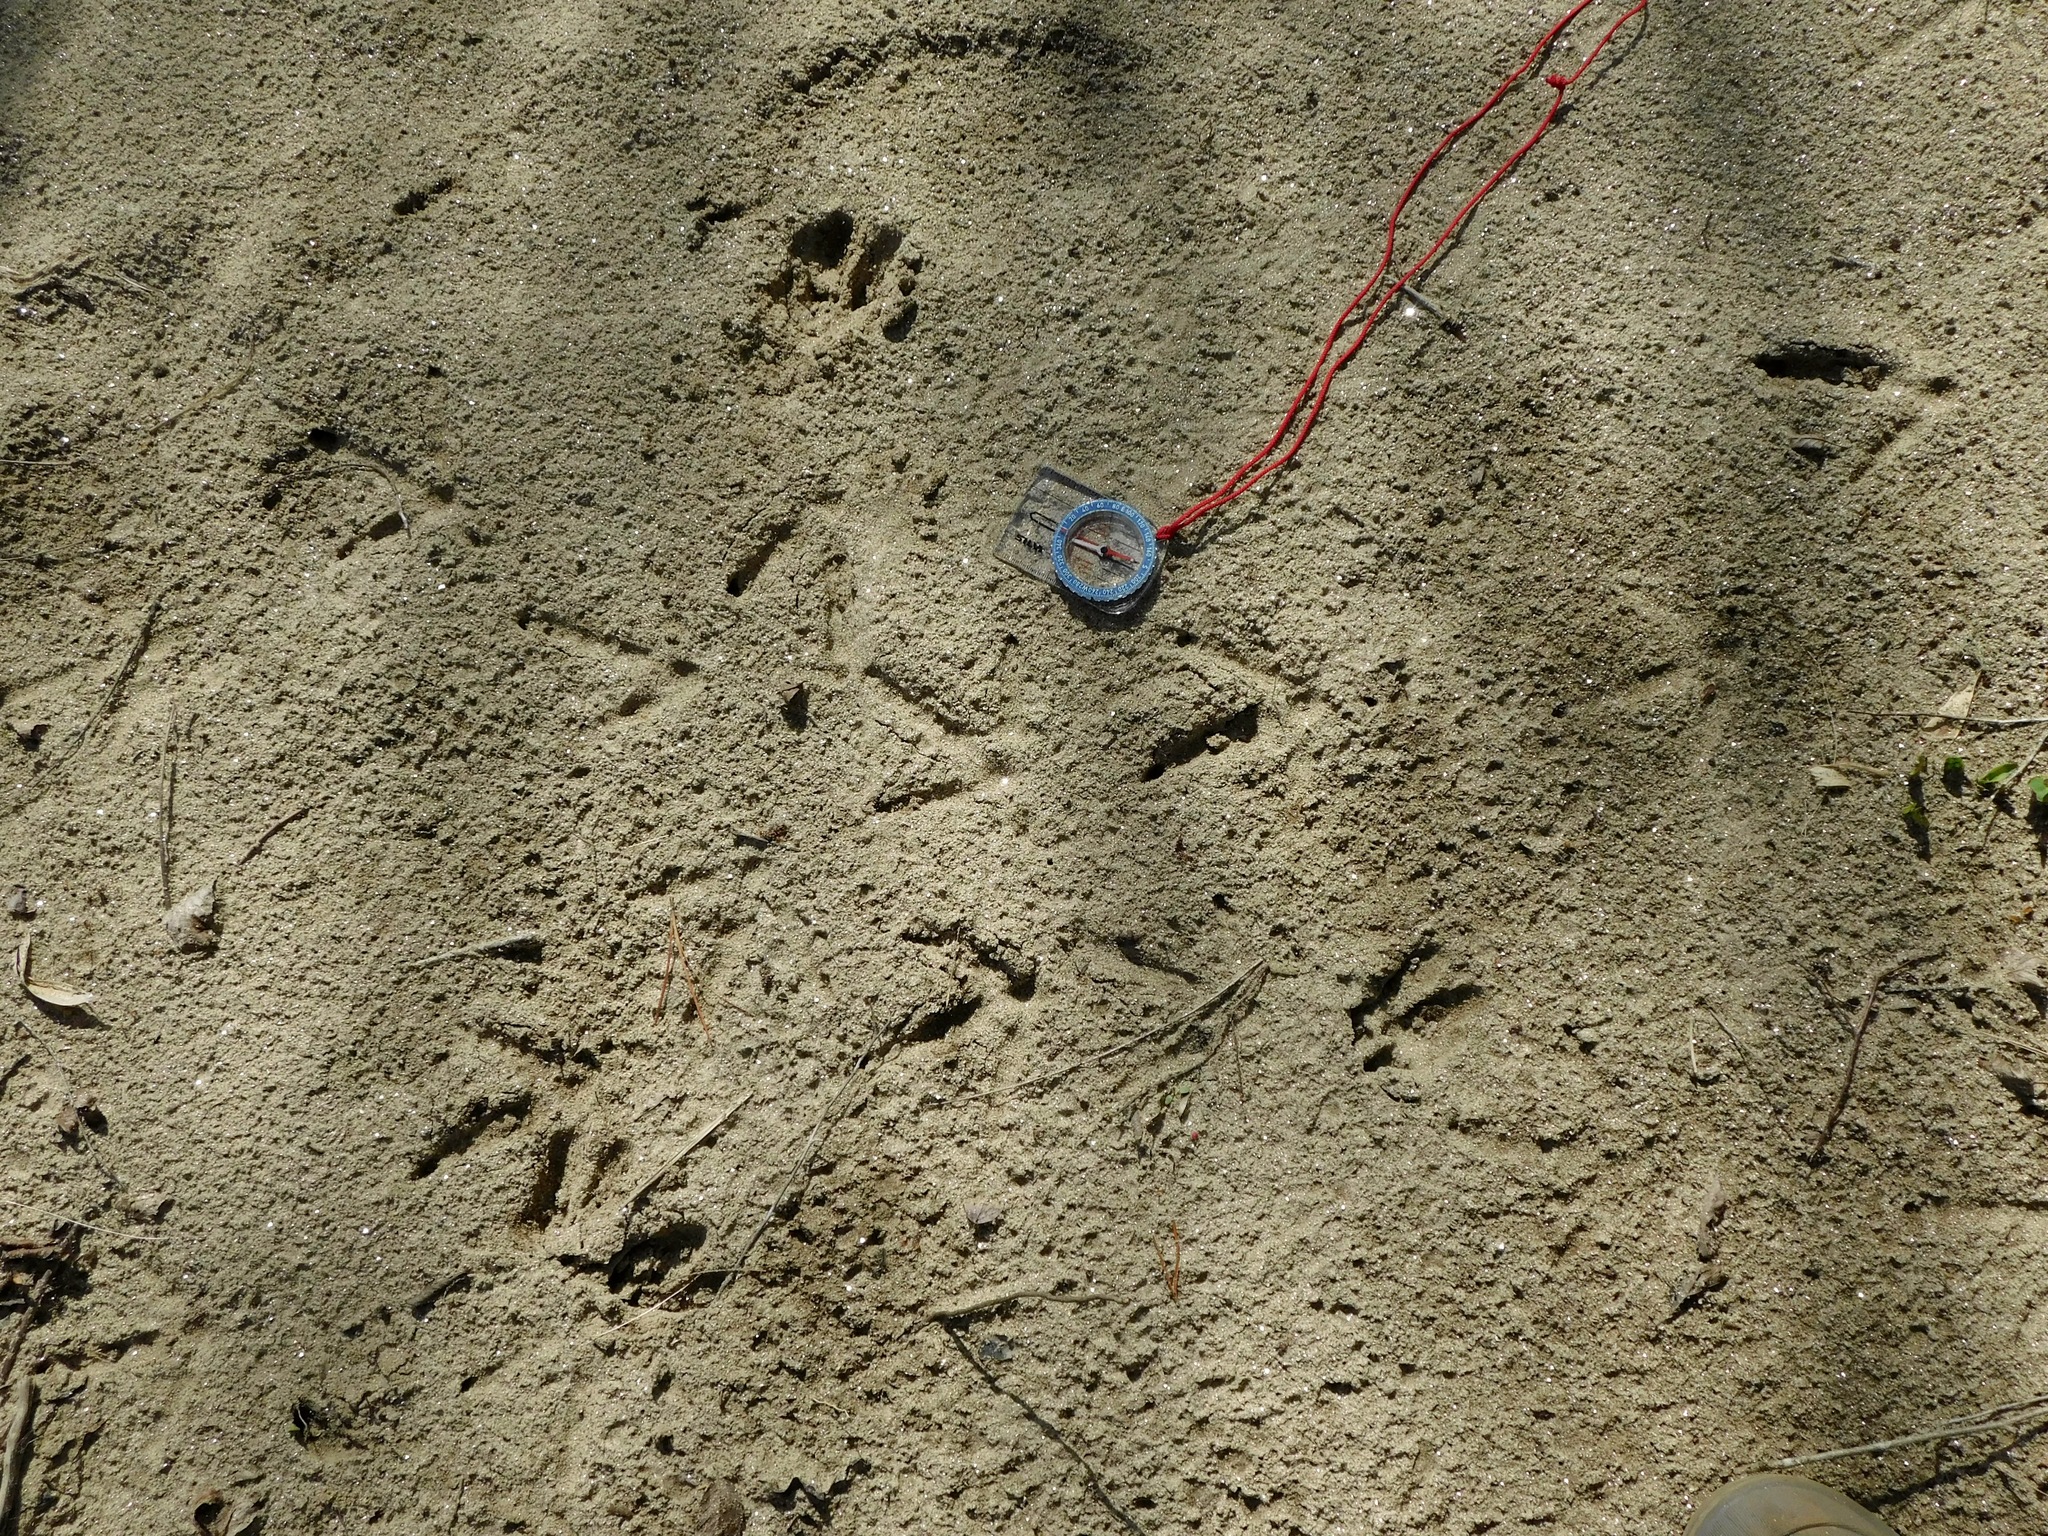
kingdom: Animalia
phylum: Chordata
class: Aves
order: Galliformes
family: Phasianidae
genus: Meleagris
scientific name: Meleagris gallopavo
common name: Wild turkey
